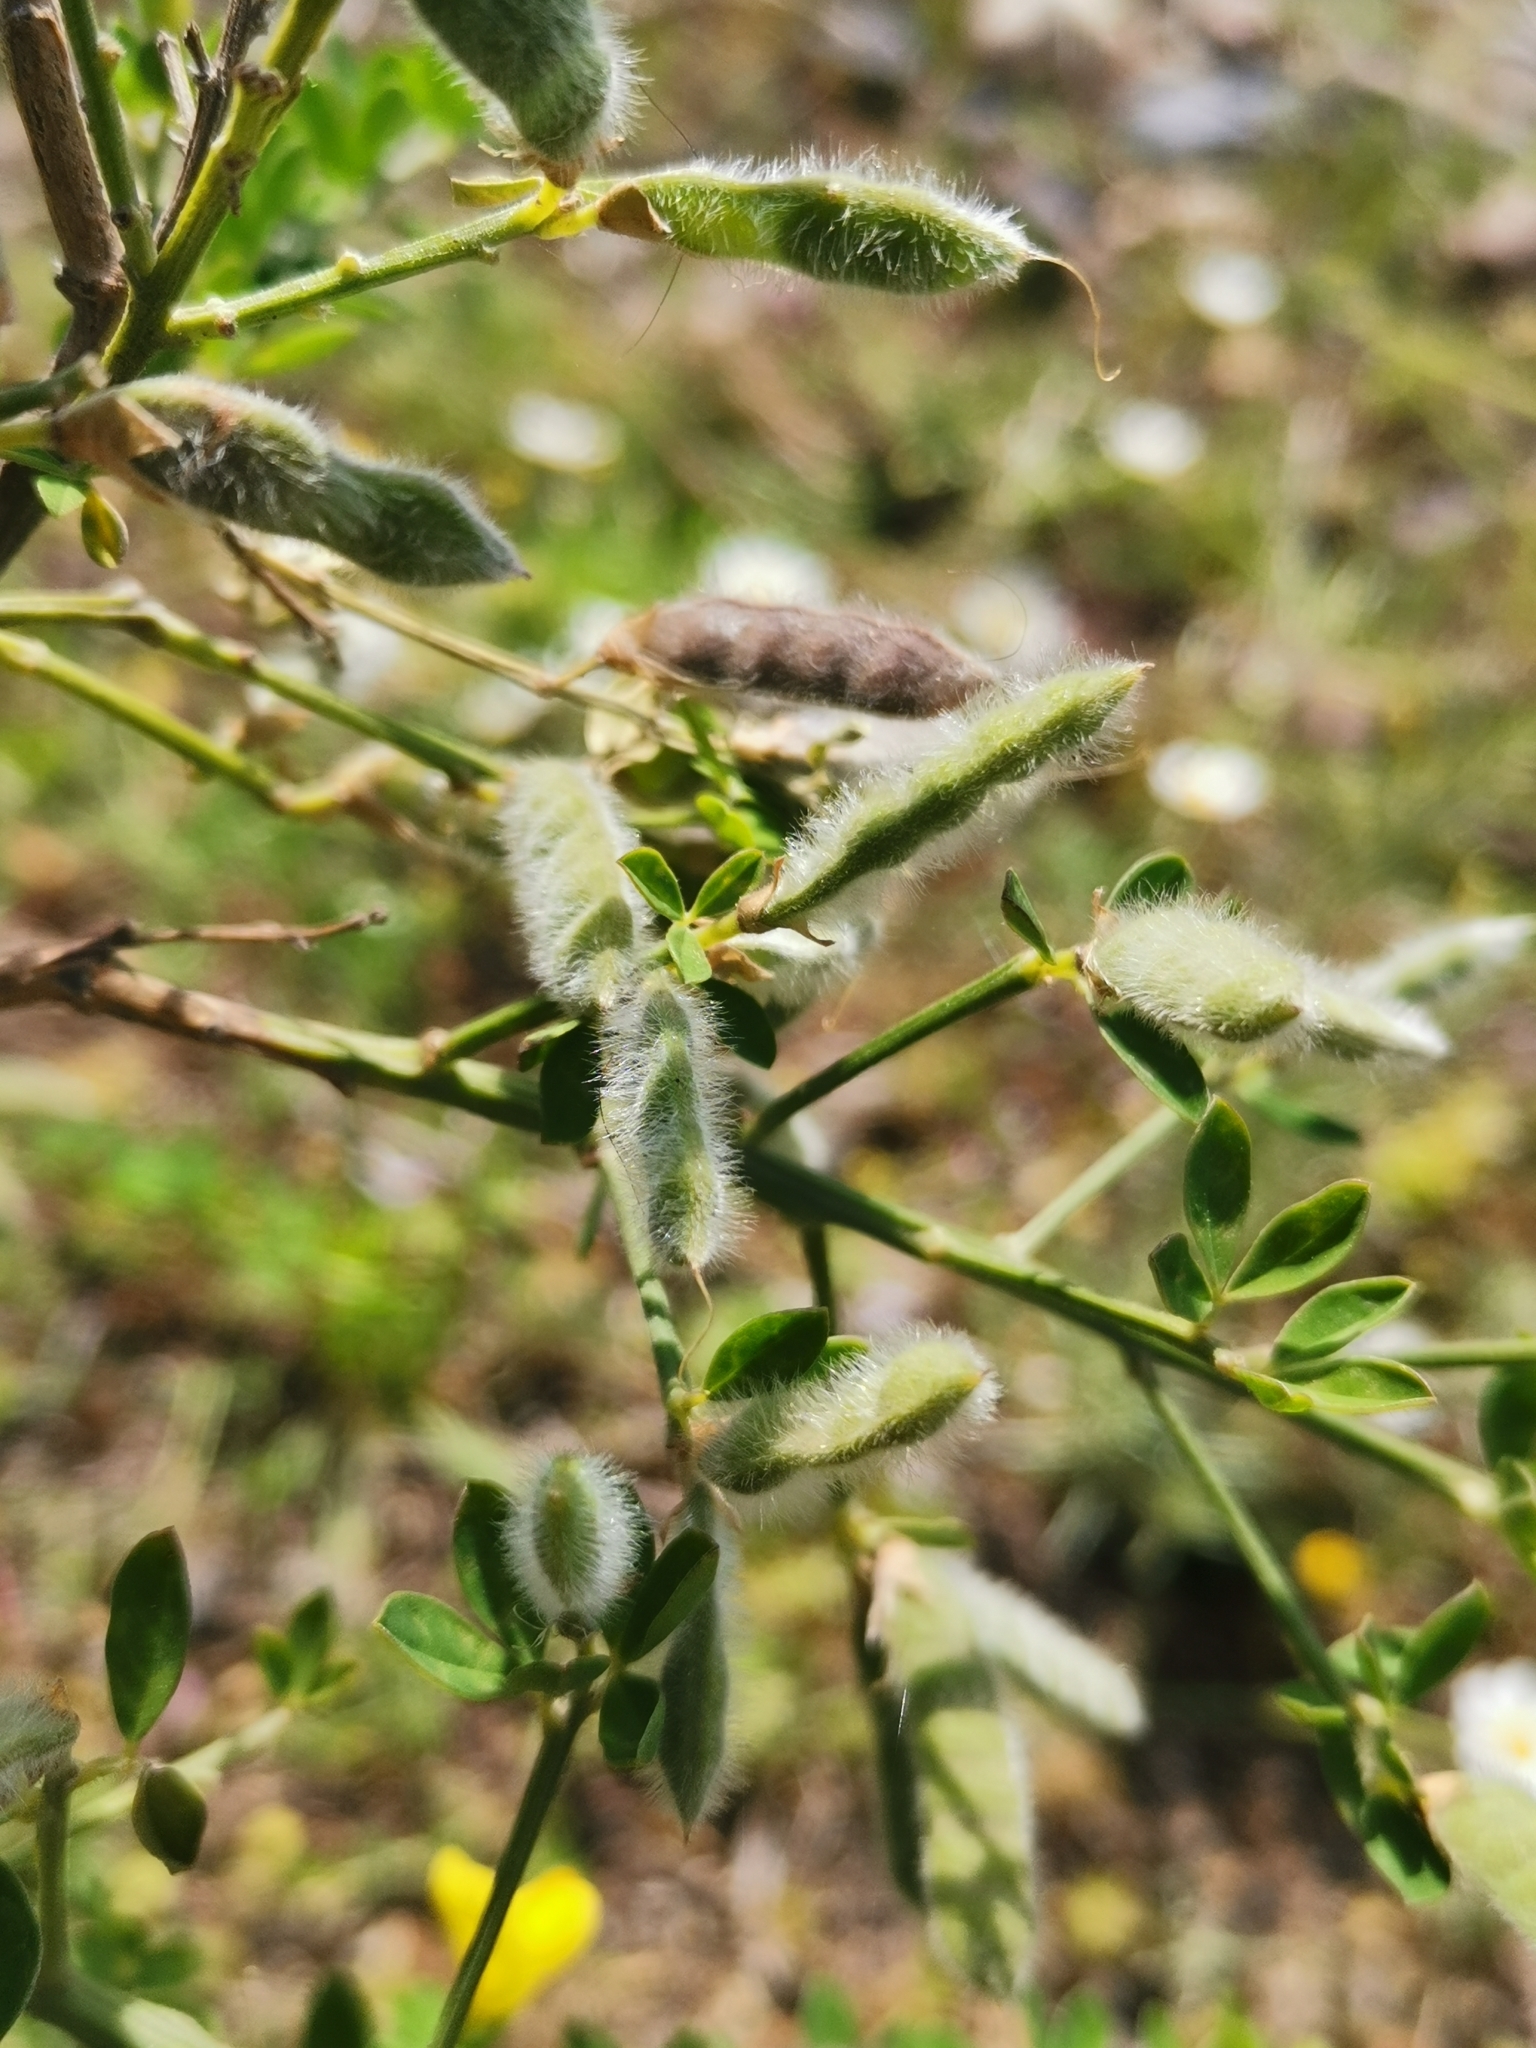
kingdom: Plantae
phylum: Tracheophyta
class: Magnoliopsida
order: Fabales
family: Fabaceae
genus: Genista
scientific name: Genista monspessulana
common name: Montpellier broom
